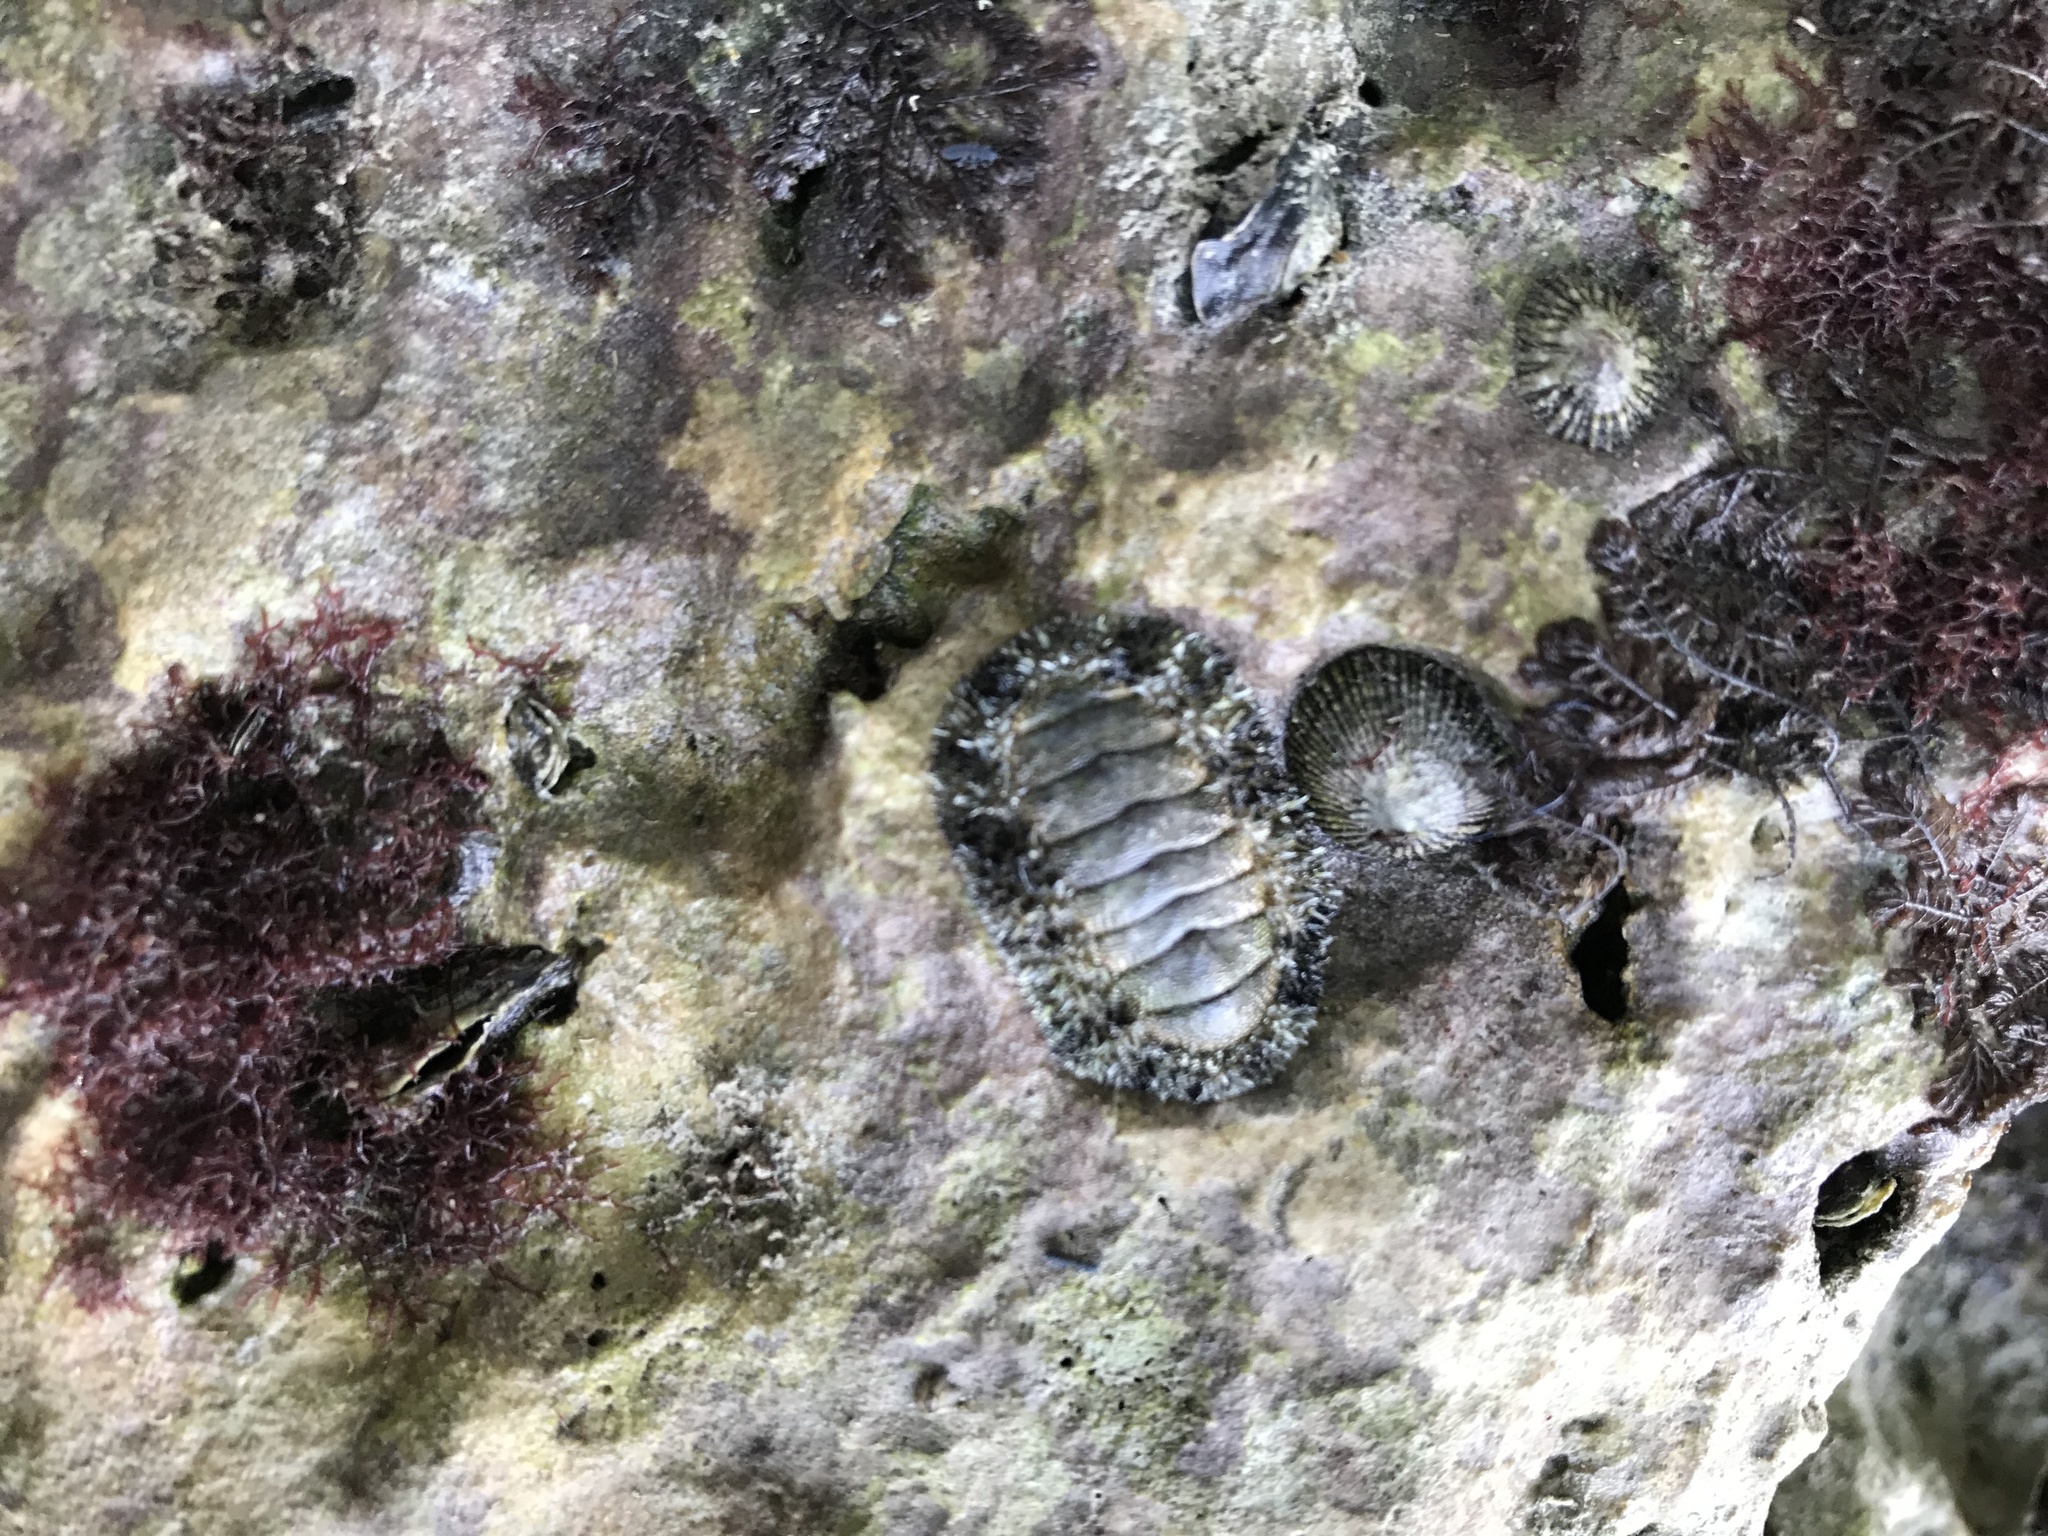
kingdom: Animalia
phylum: Mollusca
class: Polyplacophora
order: Chitonida
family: Chitonidae
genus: Acanthopleura
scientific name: Acanthopleura granulata
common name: West indian fuzzy chiton
